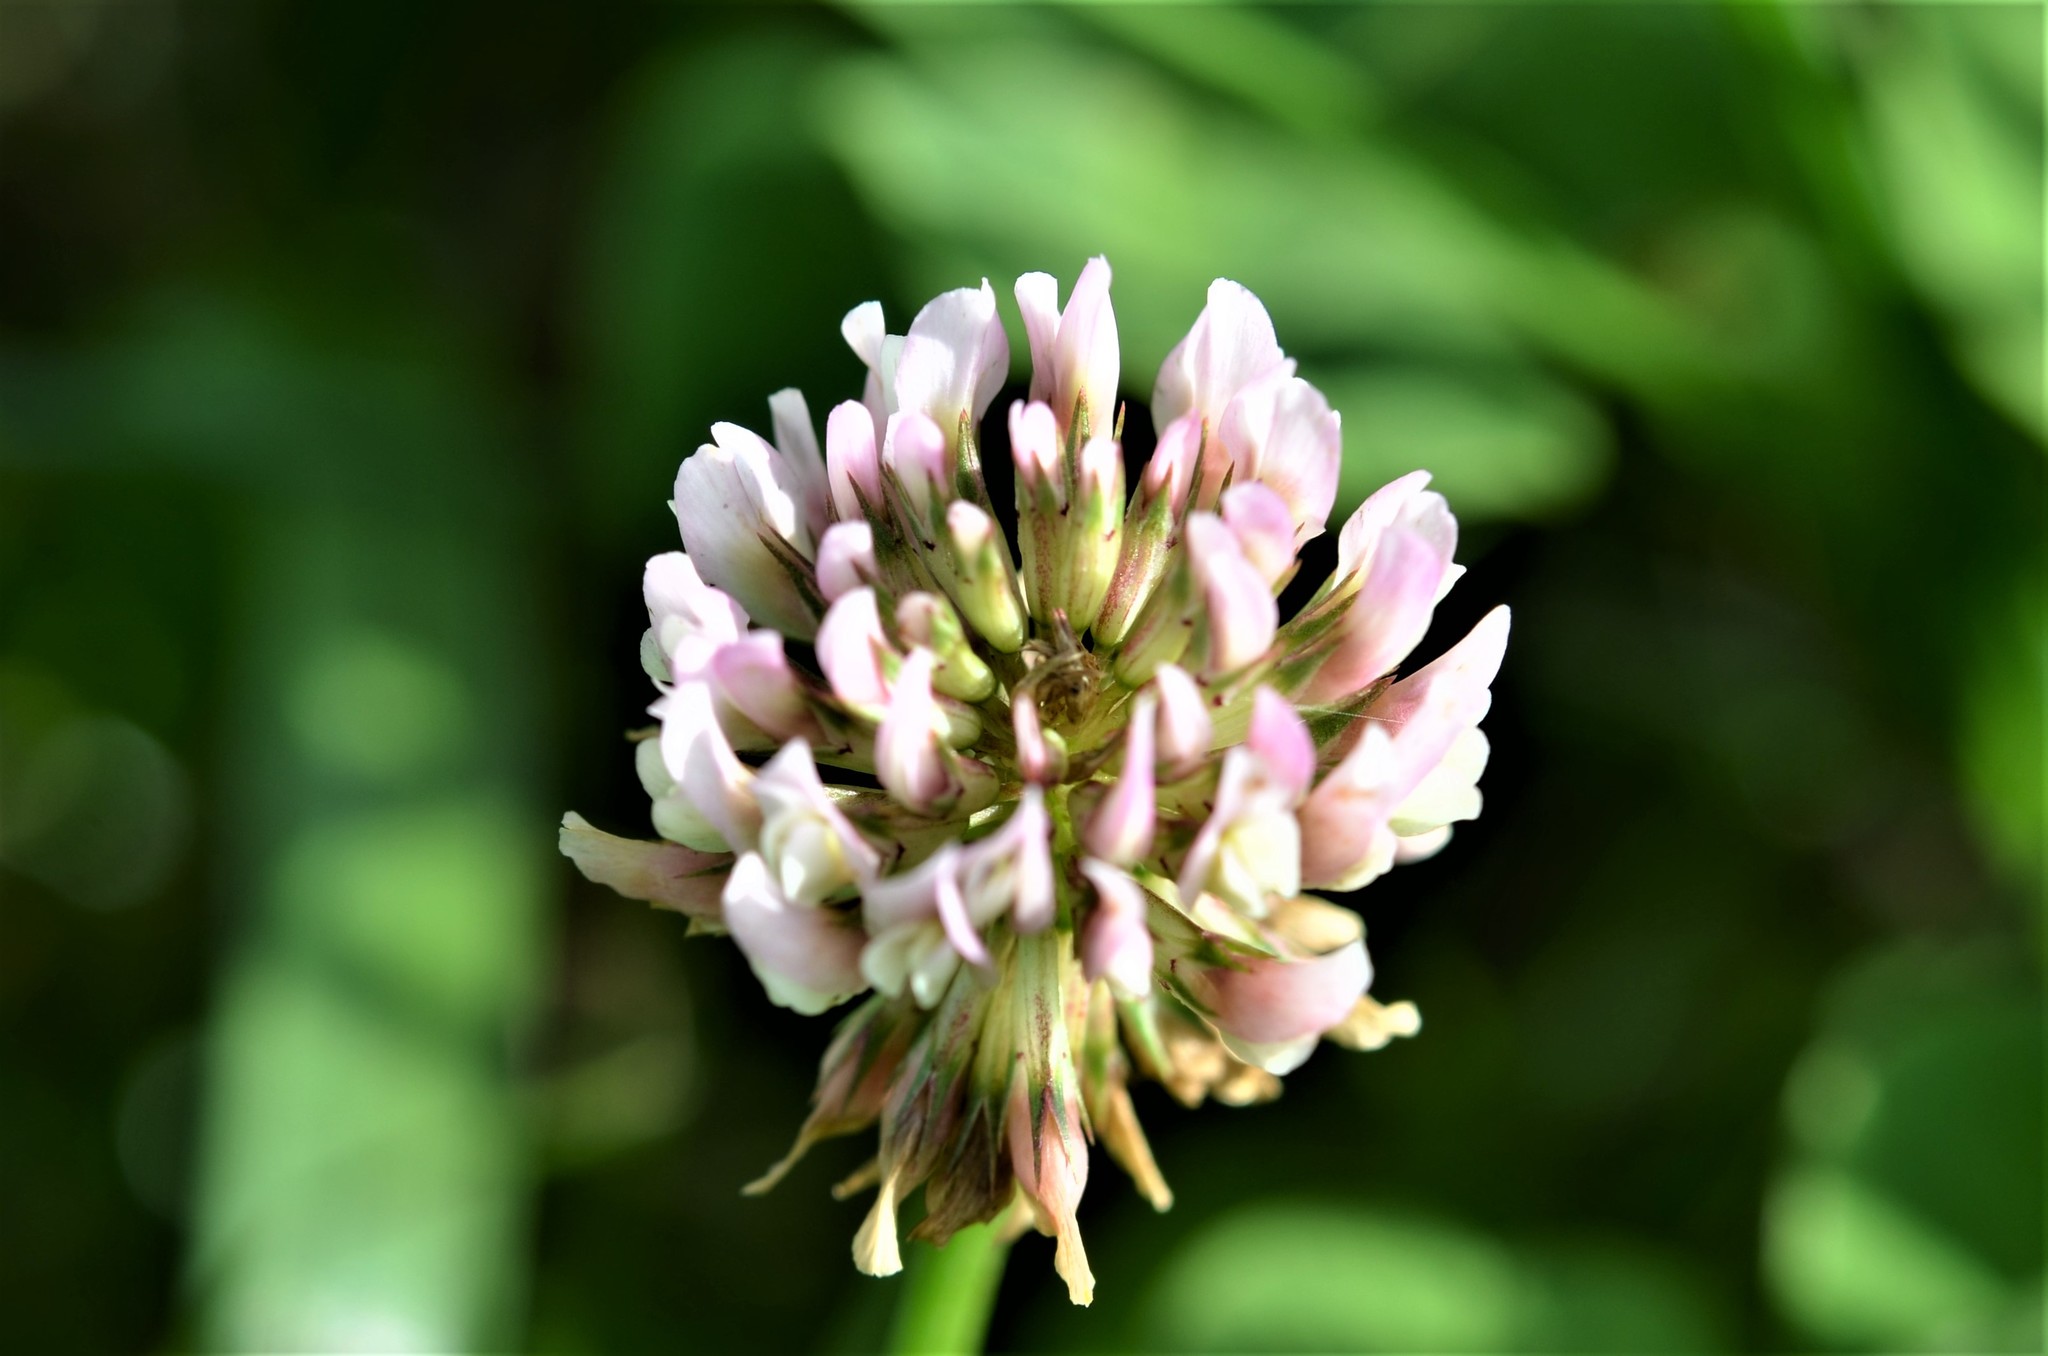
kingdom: Plantae
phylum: Tracheophyta
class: Magnoliopsida
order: Fabales
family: Fabaceae
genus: Trifolium
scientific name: Trifolium repens
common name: White clover
